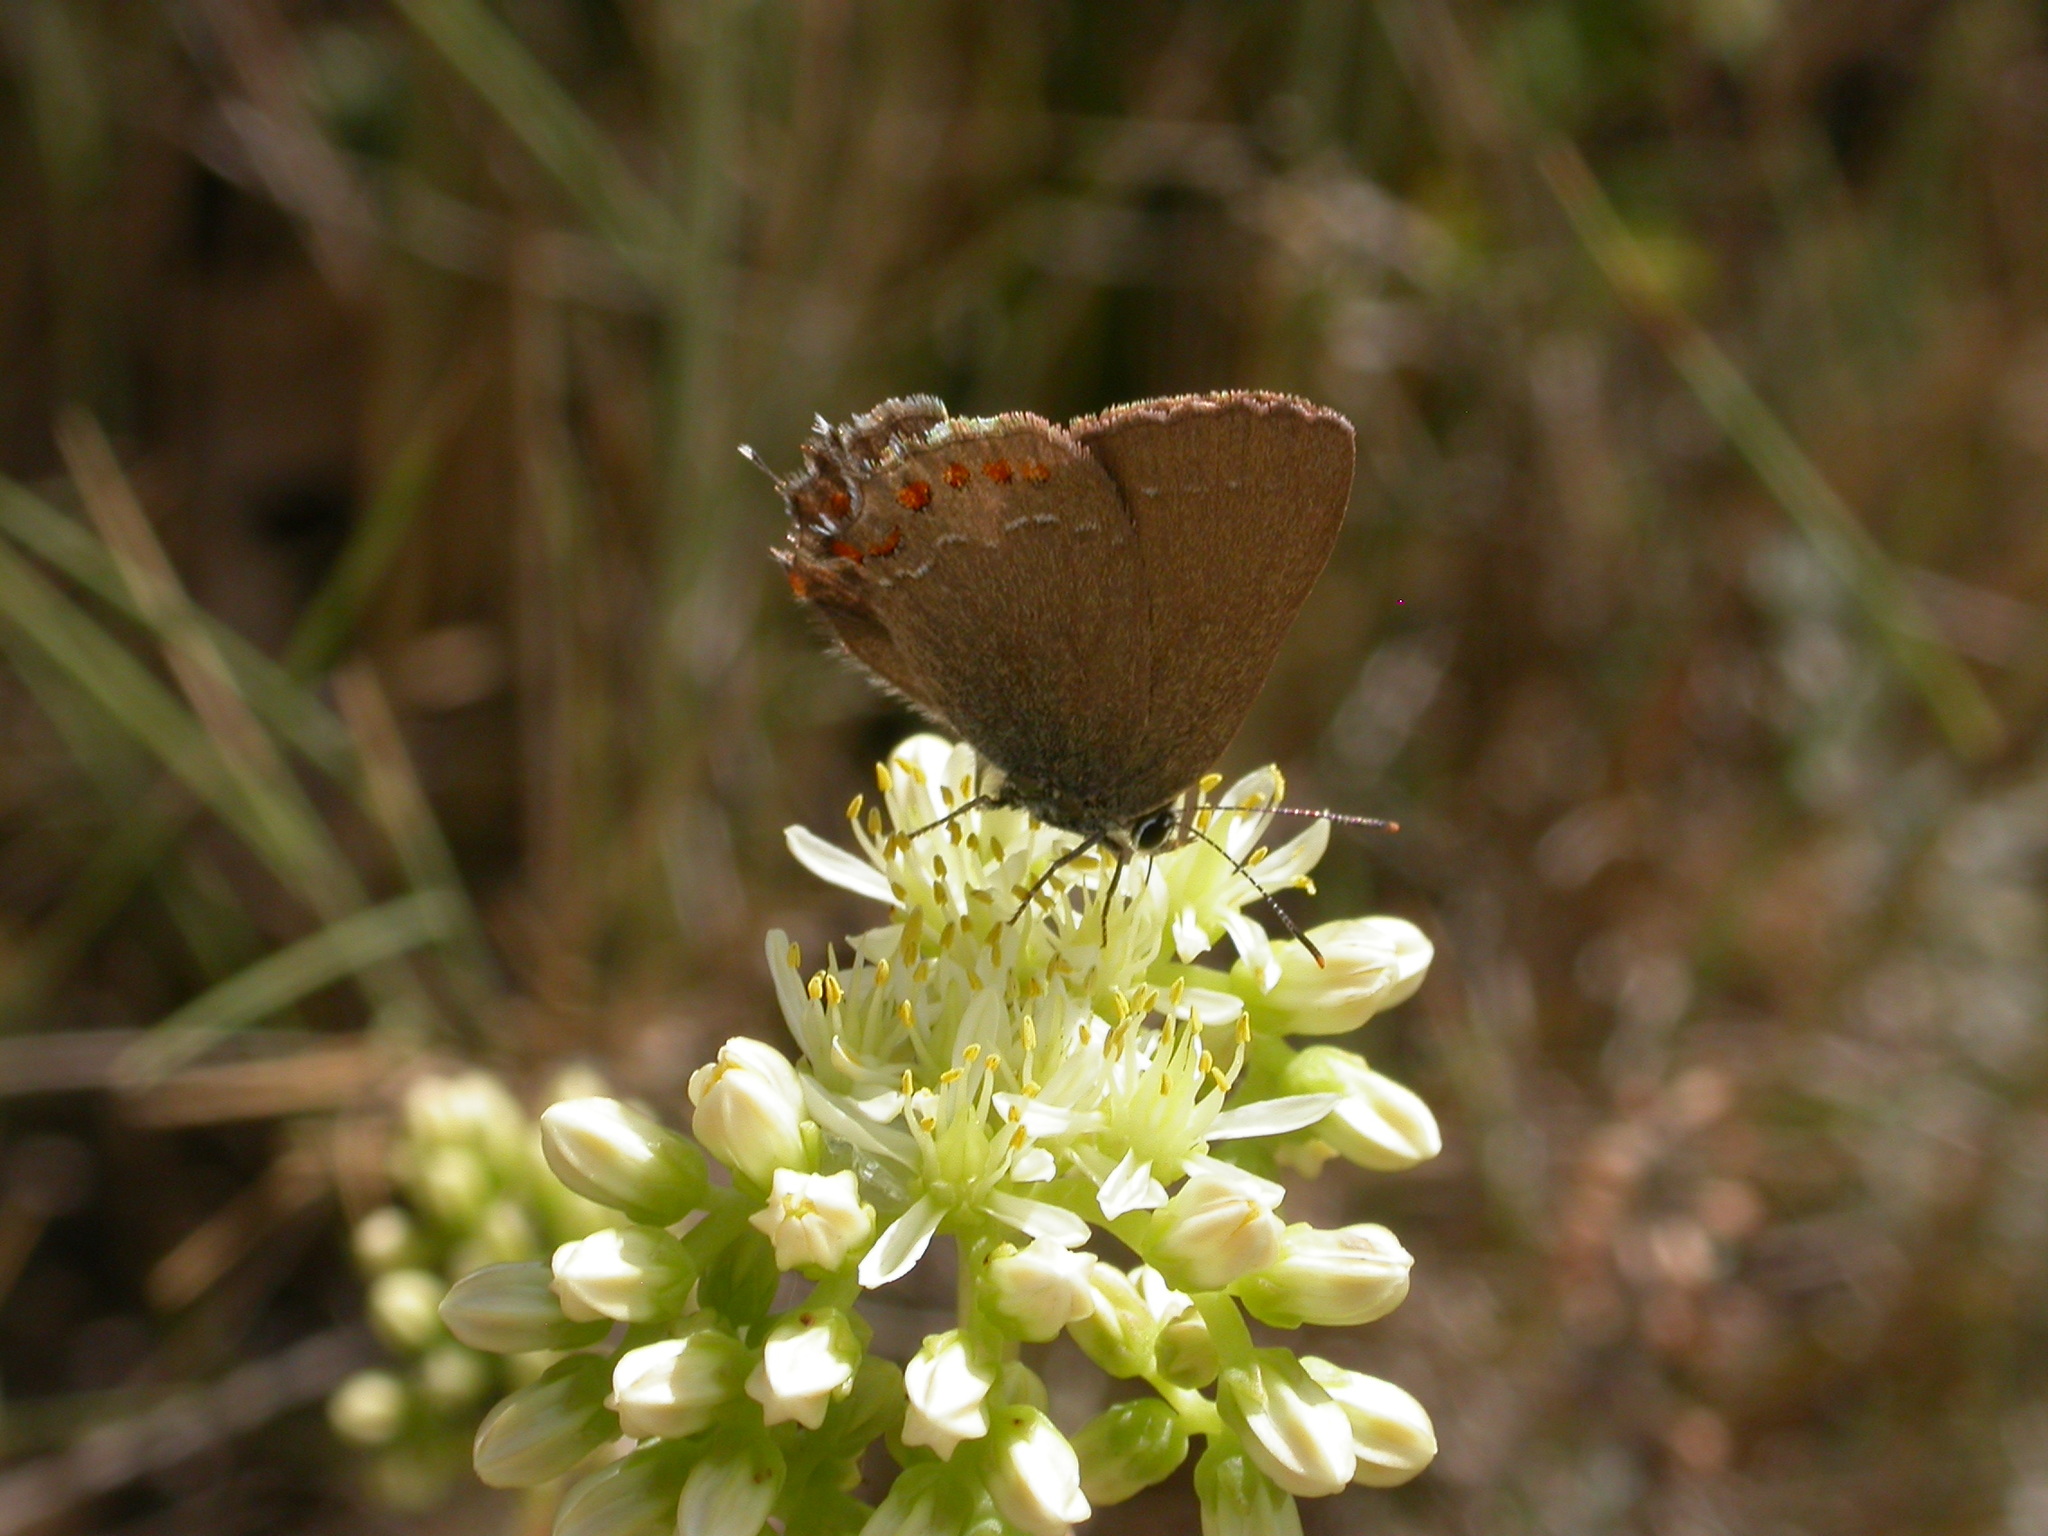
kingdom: Animalia
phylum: Arthropoda
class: Insecta
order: Lepidoptera
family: Lycaenidae
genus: Fixsenia
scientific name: Fixsenia esculi
